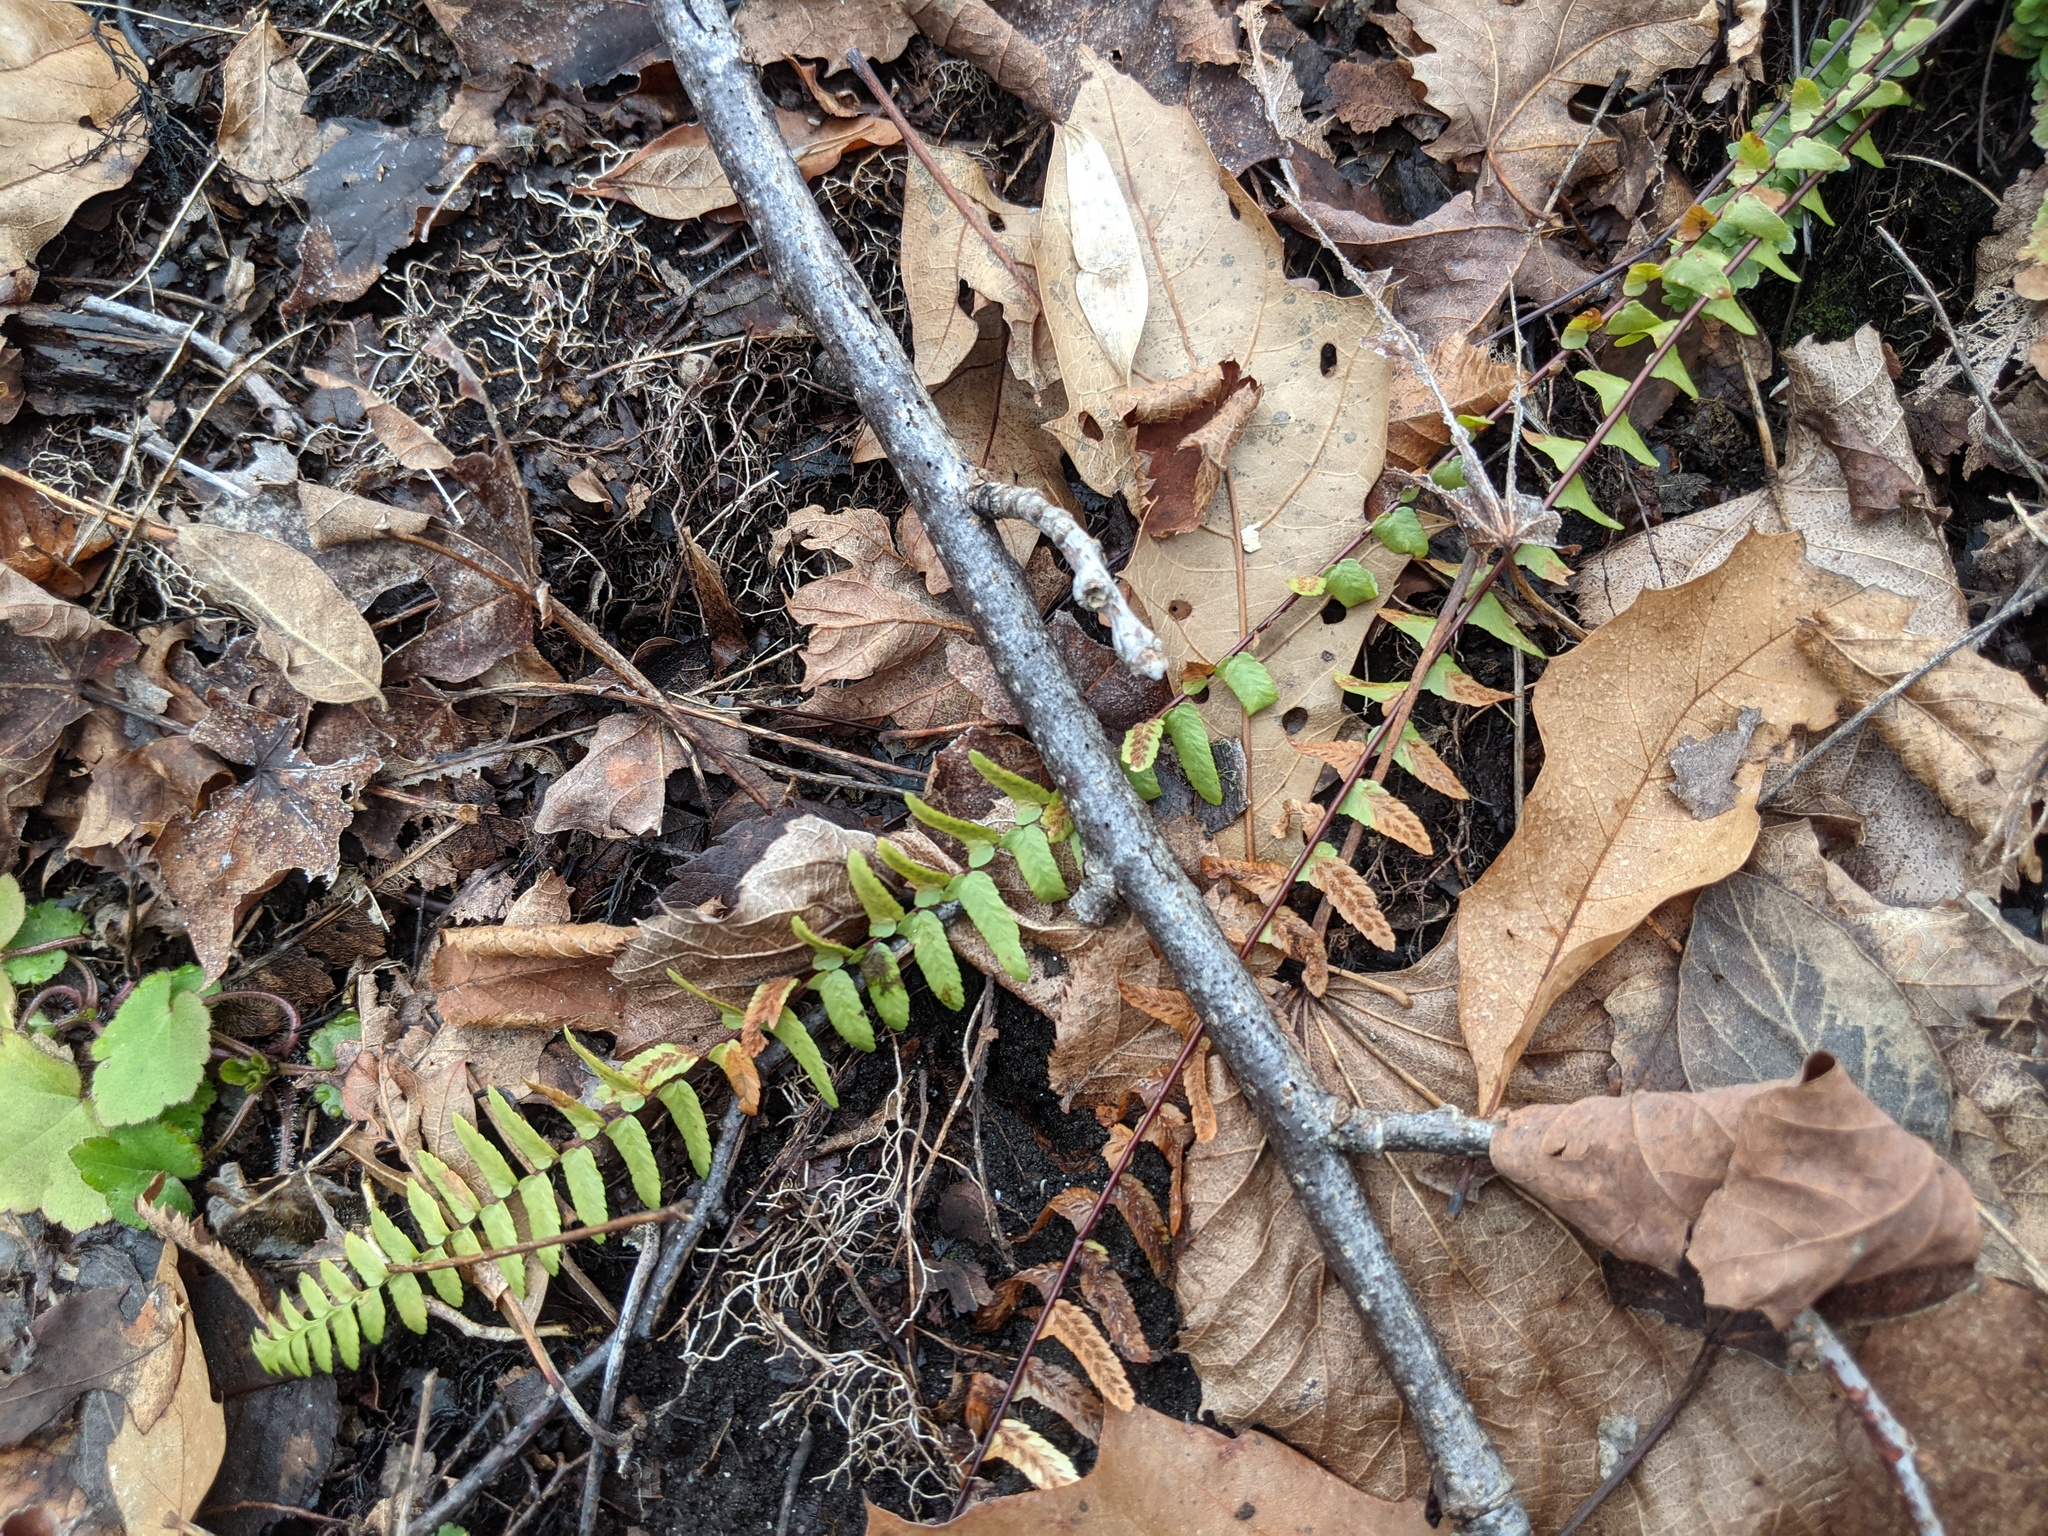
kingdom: Plantae
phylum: Tracheophyta
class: Polypodiopsida
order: Polypodiales
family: Aspleniaceae
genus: Asplenium
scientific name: Asplenium platyneuron
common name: Ebony spleenwort
